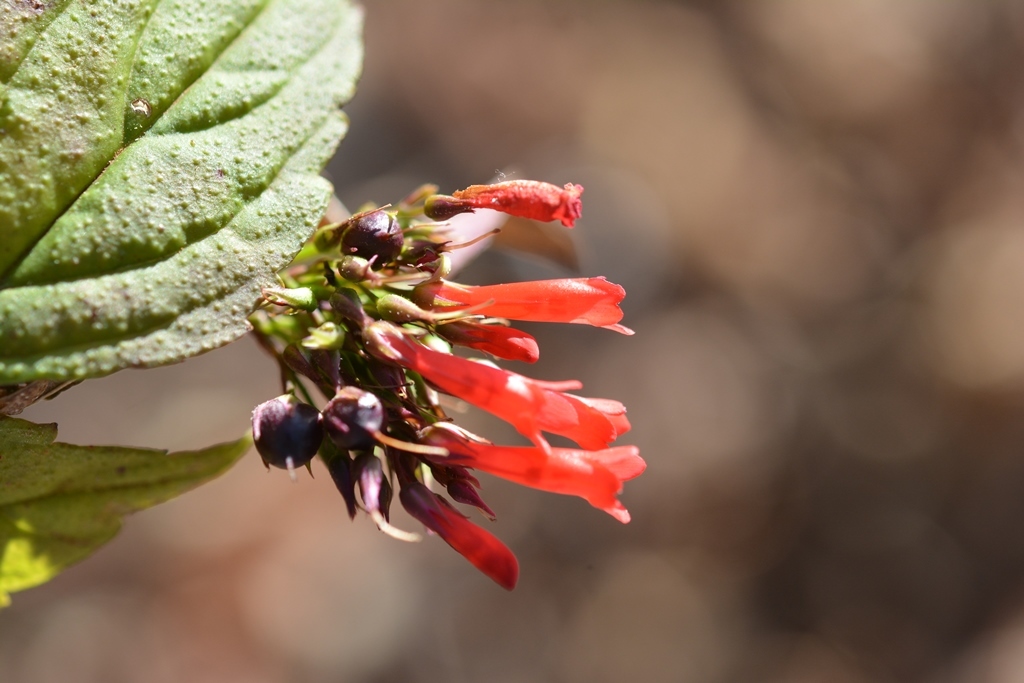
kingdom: Plantae
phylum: Tracheophyta
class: Magnoliopsida
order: Lamiales
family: Plantaginaceae
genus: Russelia
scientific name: Russelia sarmentosa
